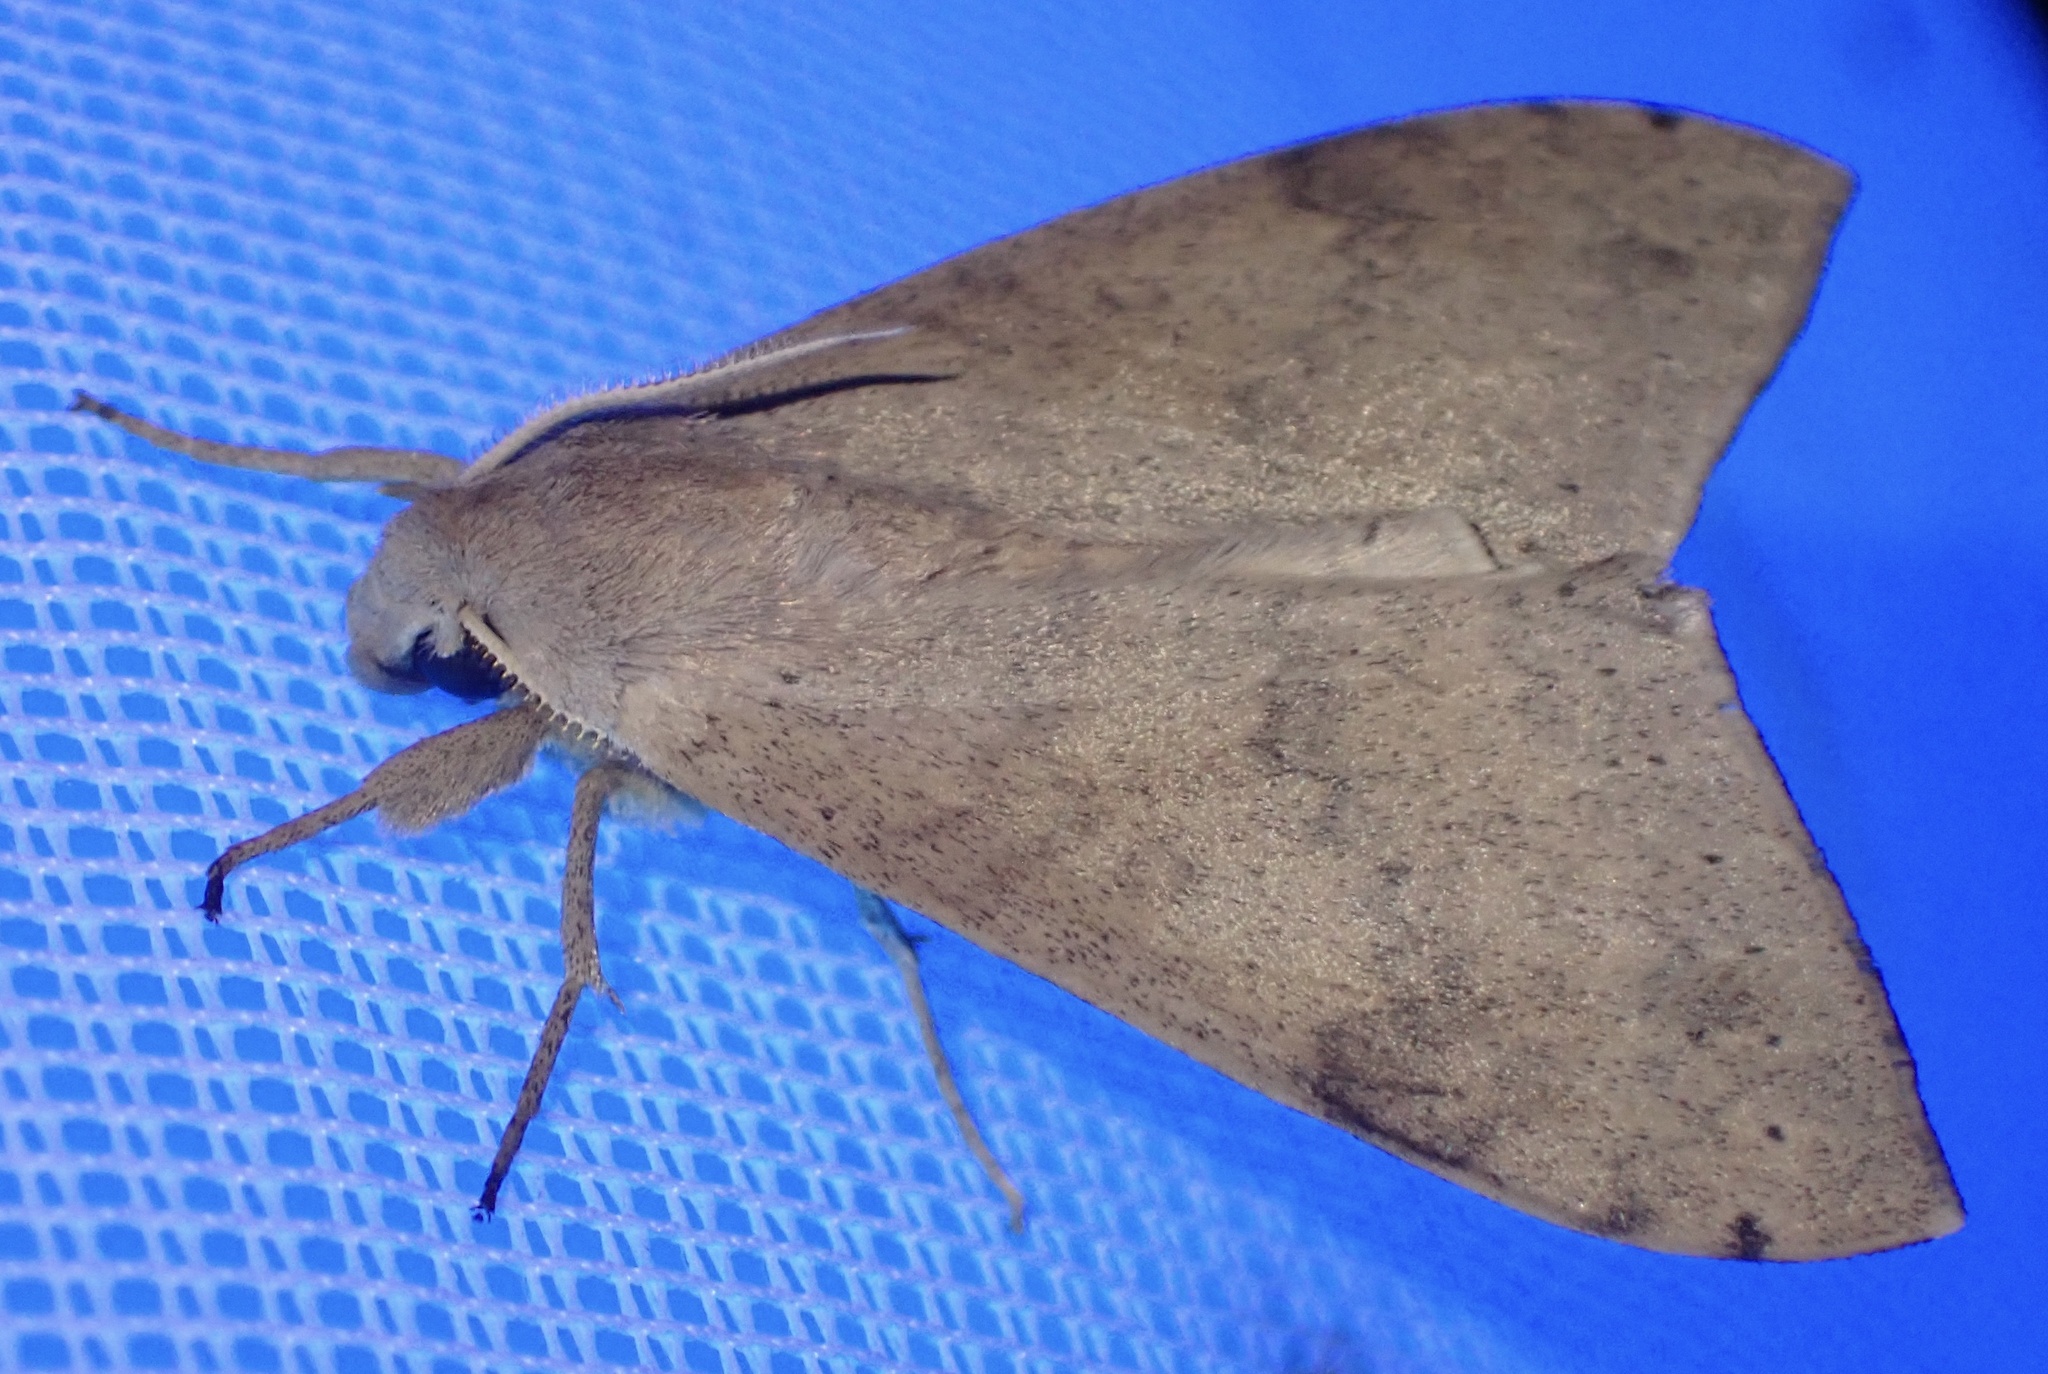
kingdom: Animalia
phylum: Arthropoda
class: Insecta
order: Lepidoptera
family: Sphingidae
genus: Polyptychus
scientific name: Polyptychus girardi
